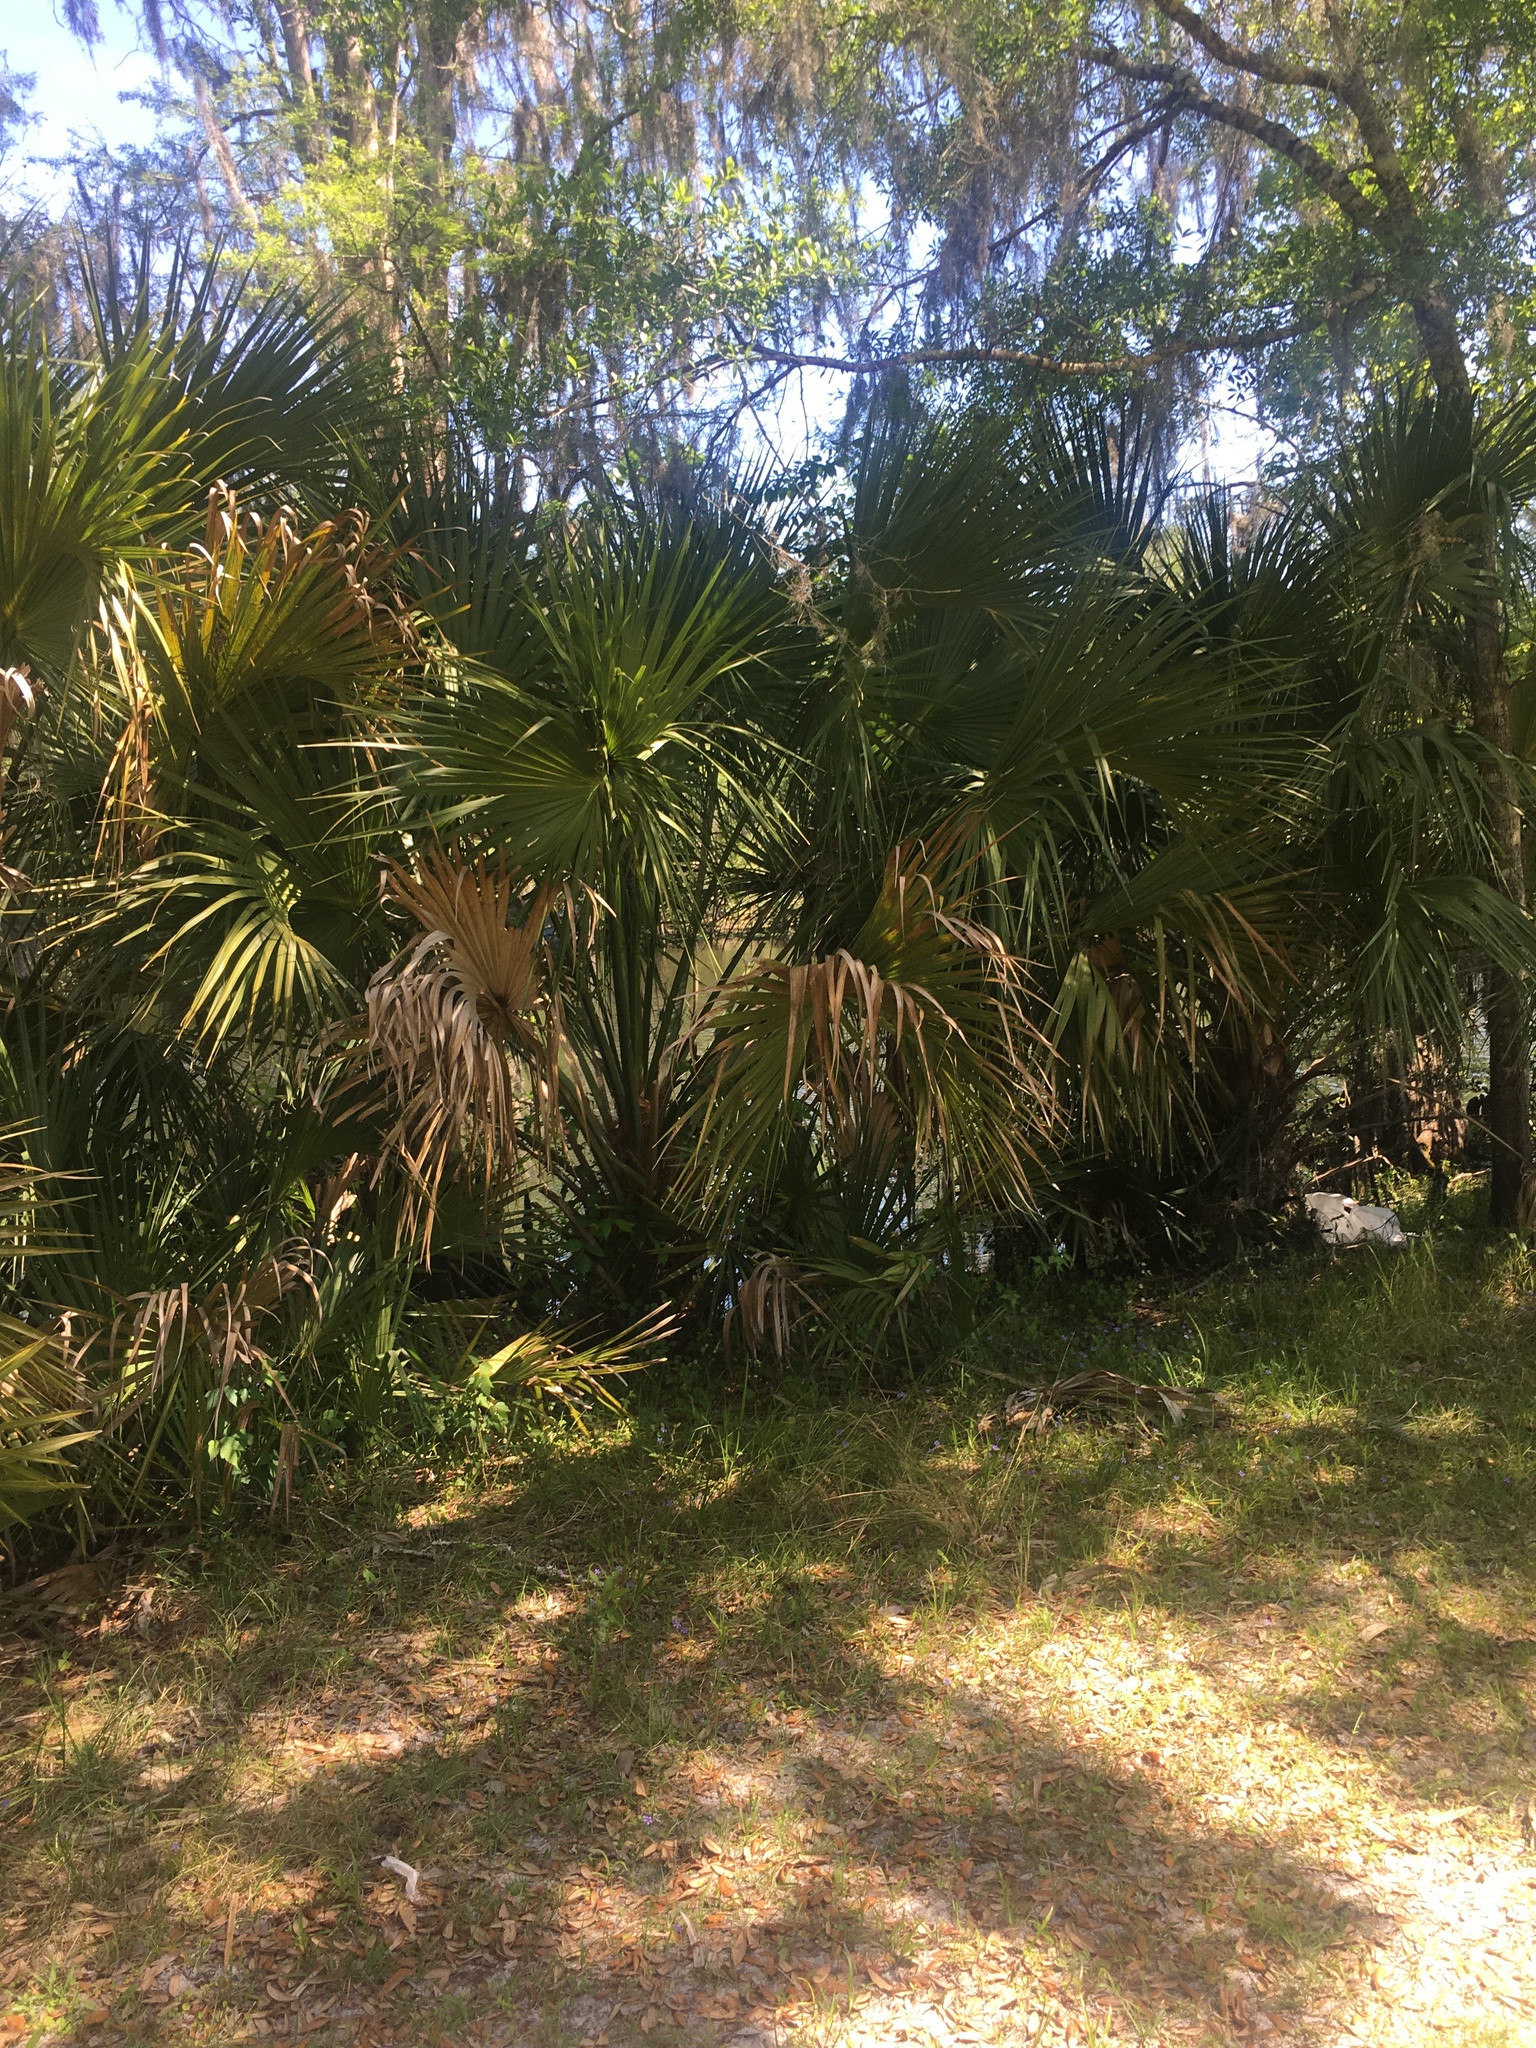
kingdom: Plantae
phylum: Tracheophyta
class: Liliopsida
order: Arecales
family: Arecaceae
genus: Sabal
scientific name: Sabal palmetto
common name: Blue palmetto
